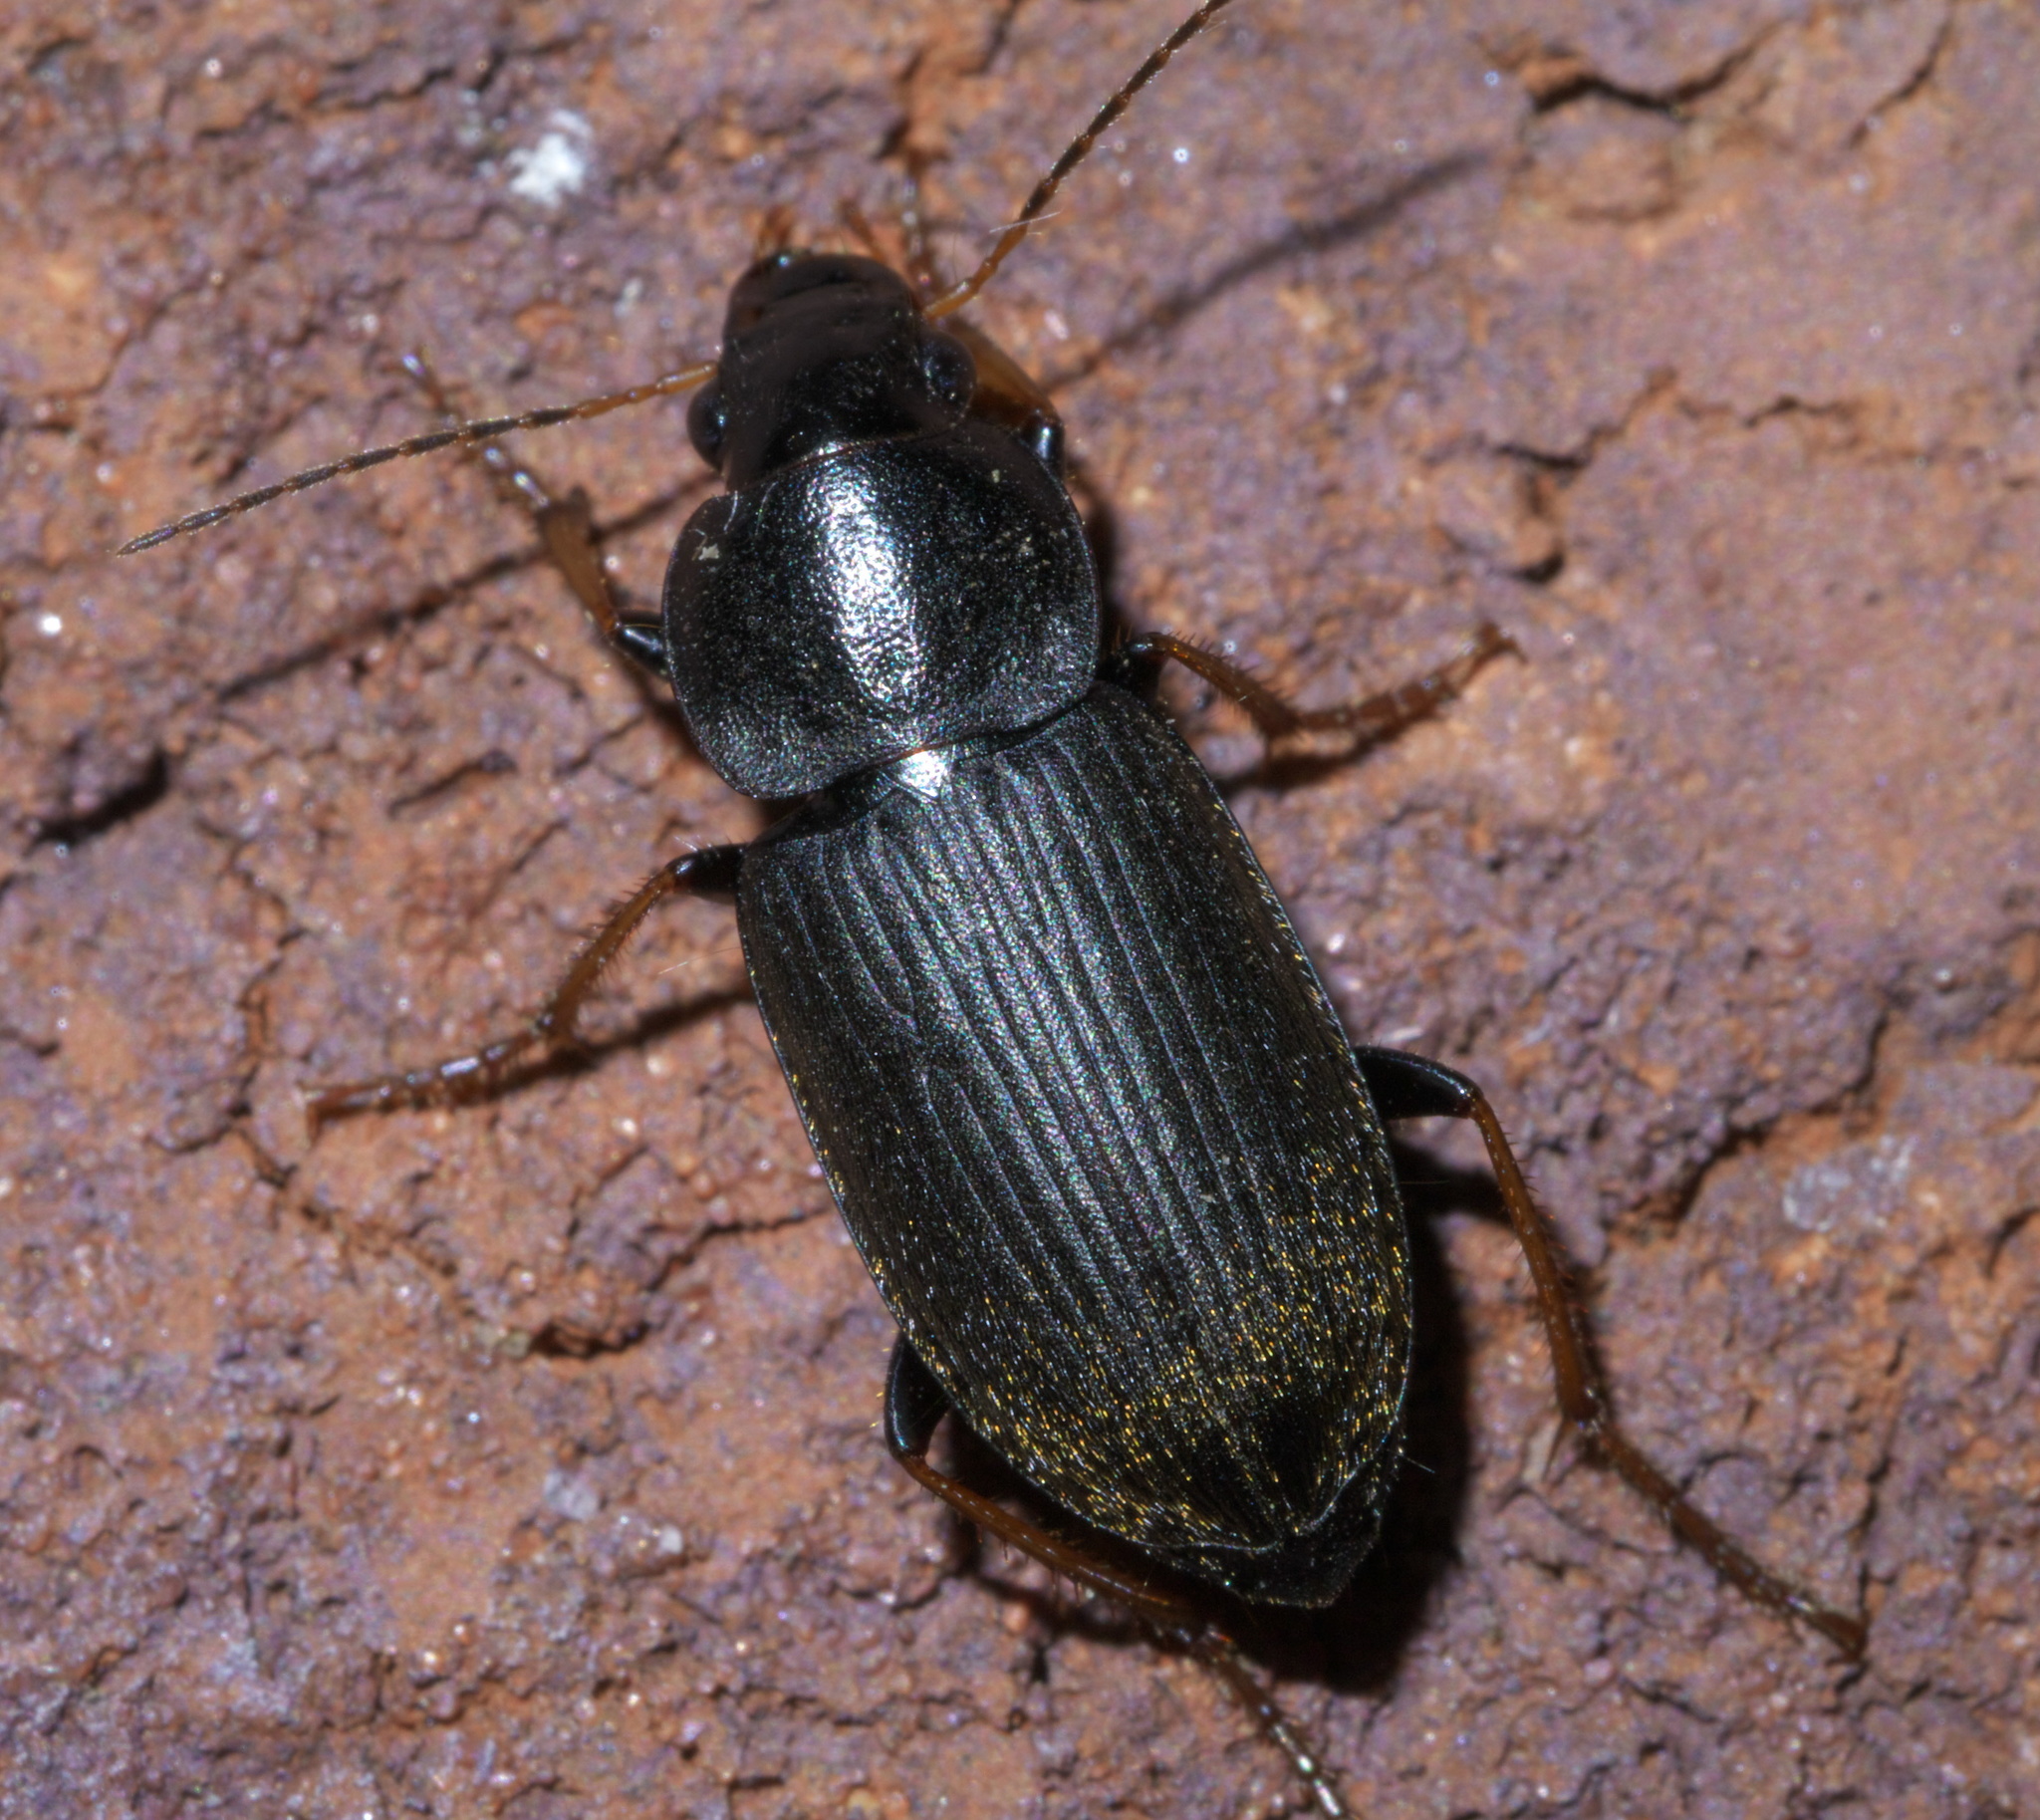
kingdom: Animalia
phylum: Arthropoda
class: Insecta
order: Coleoptera
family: Carabidae
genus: Amphasia
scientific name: Amphasia sericea
